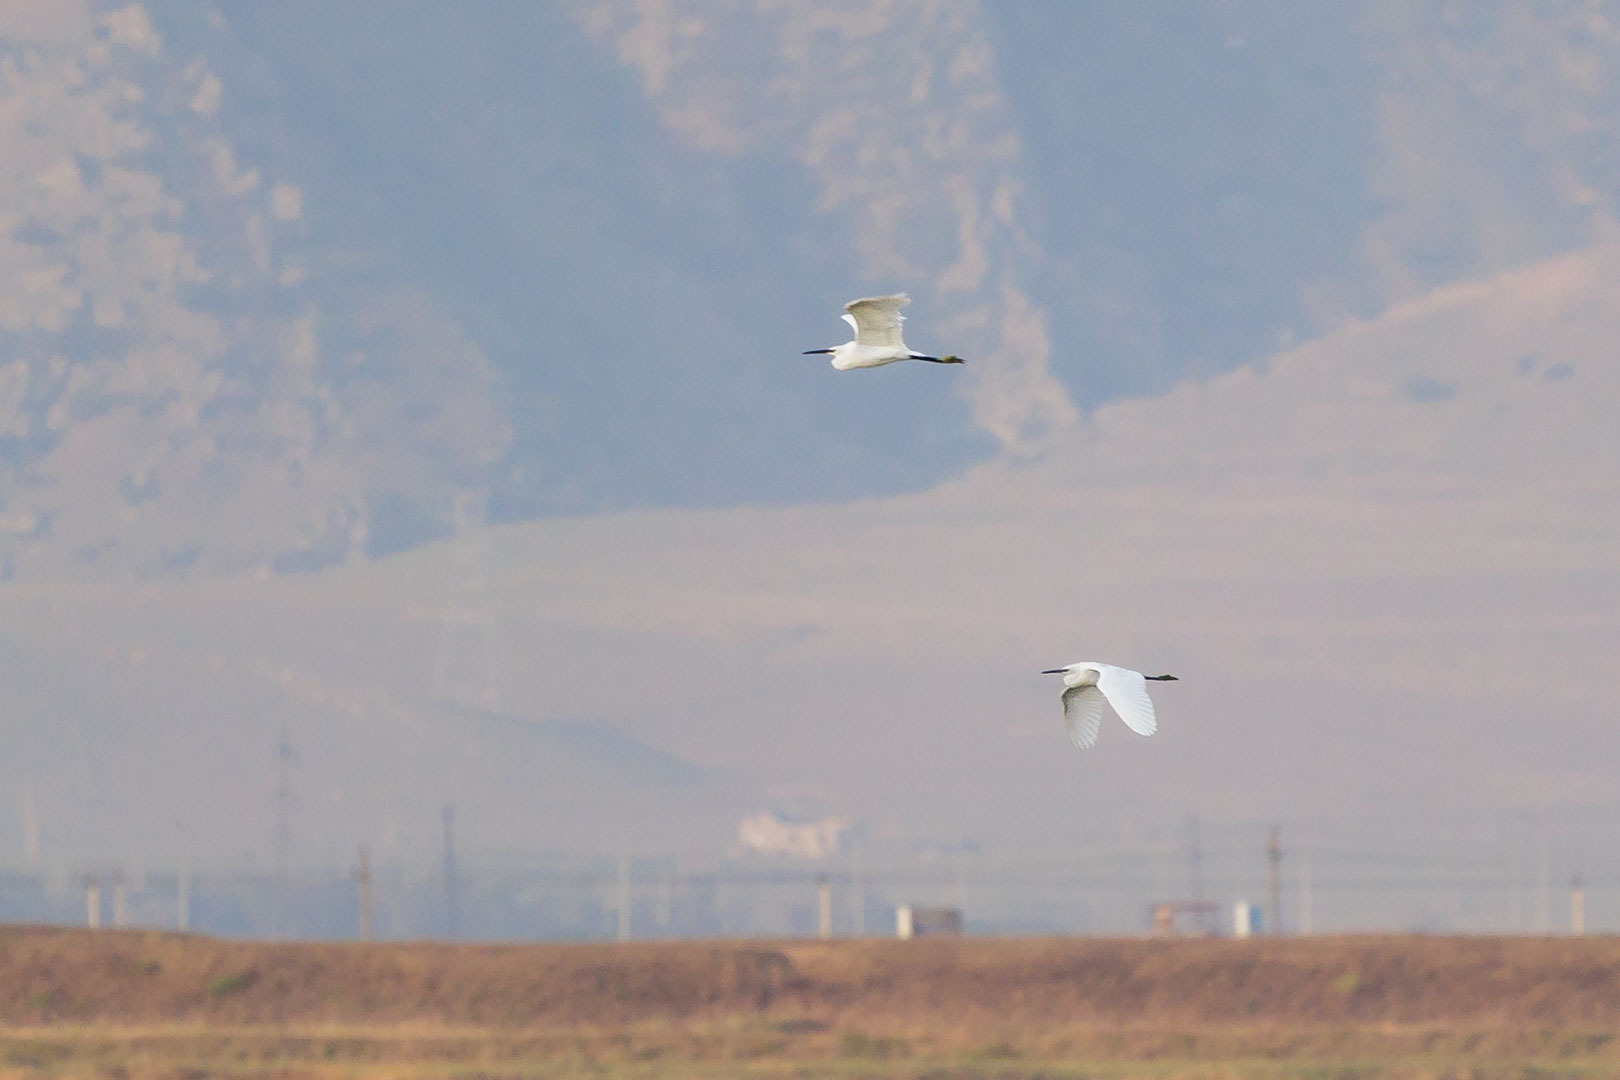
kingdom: Animalia
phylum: Chordata
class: Aves
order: Pelecaniformes
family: Ardeidae
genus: Egretta
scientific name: Egretta garzetta
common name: Little egret
